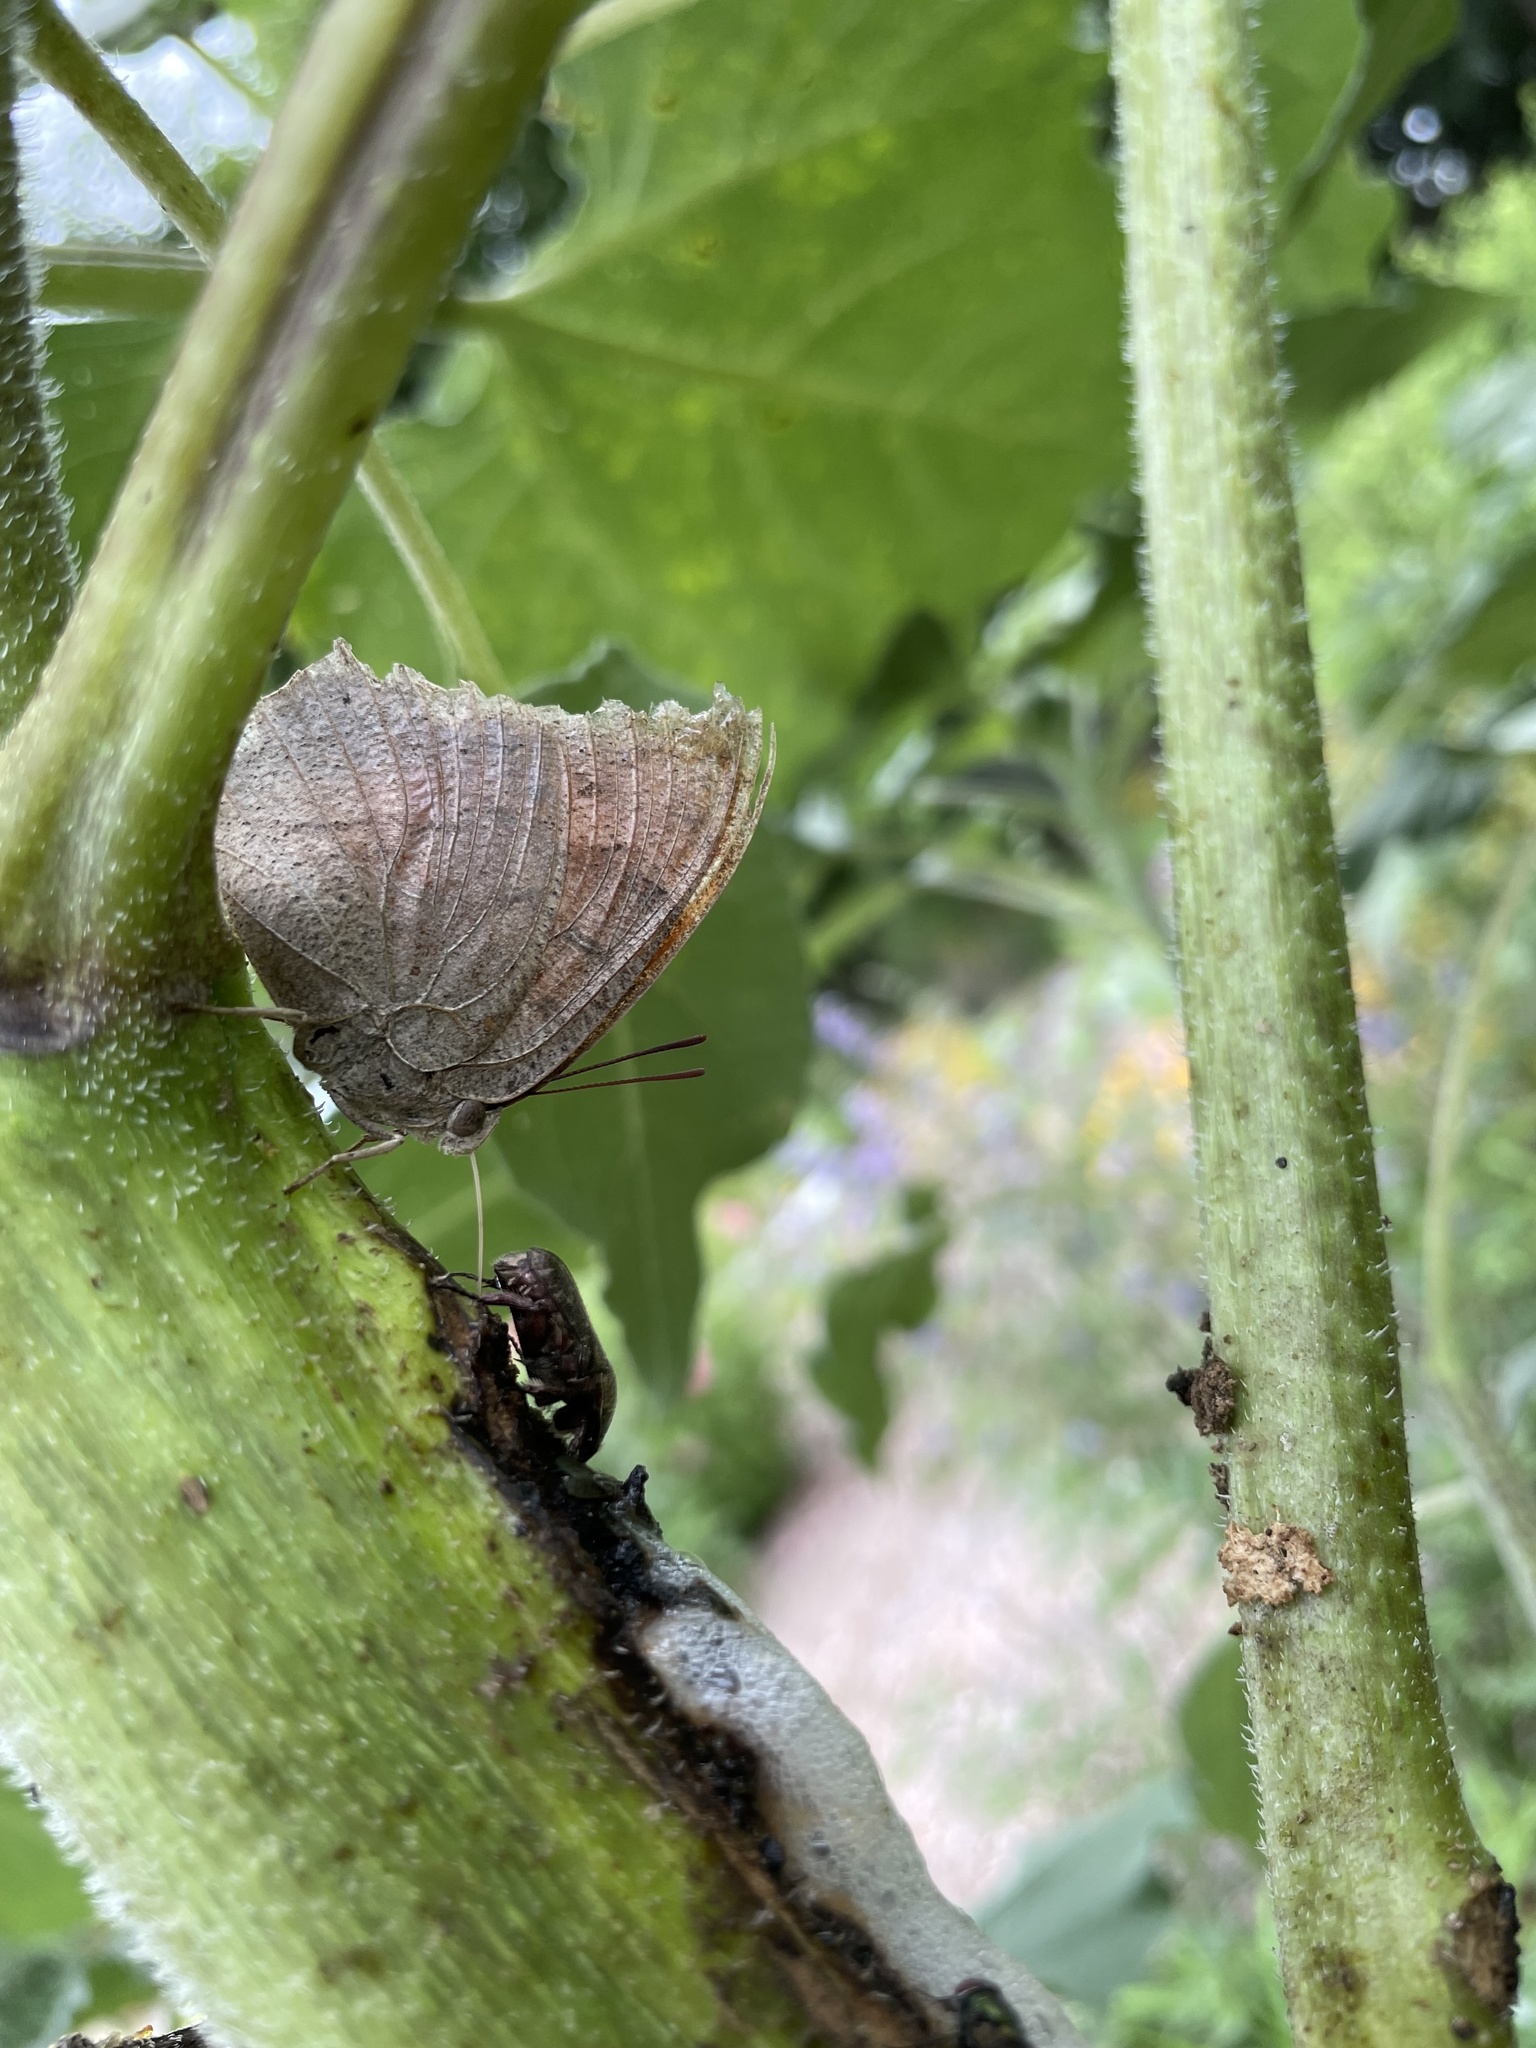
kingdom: Animalia
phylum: Arthropoda
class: Insecta
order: Lepidoptera
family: Nymphalidae
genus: Anaea
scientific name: Anaea andria
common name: Goatweed leafwing
